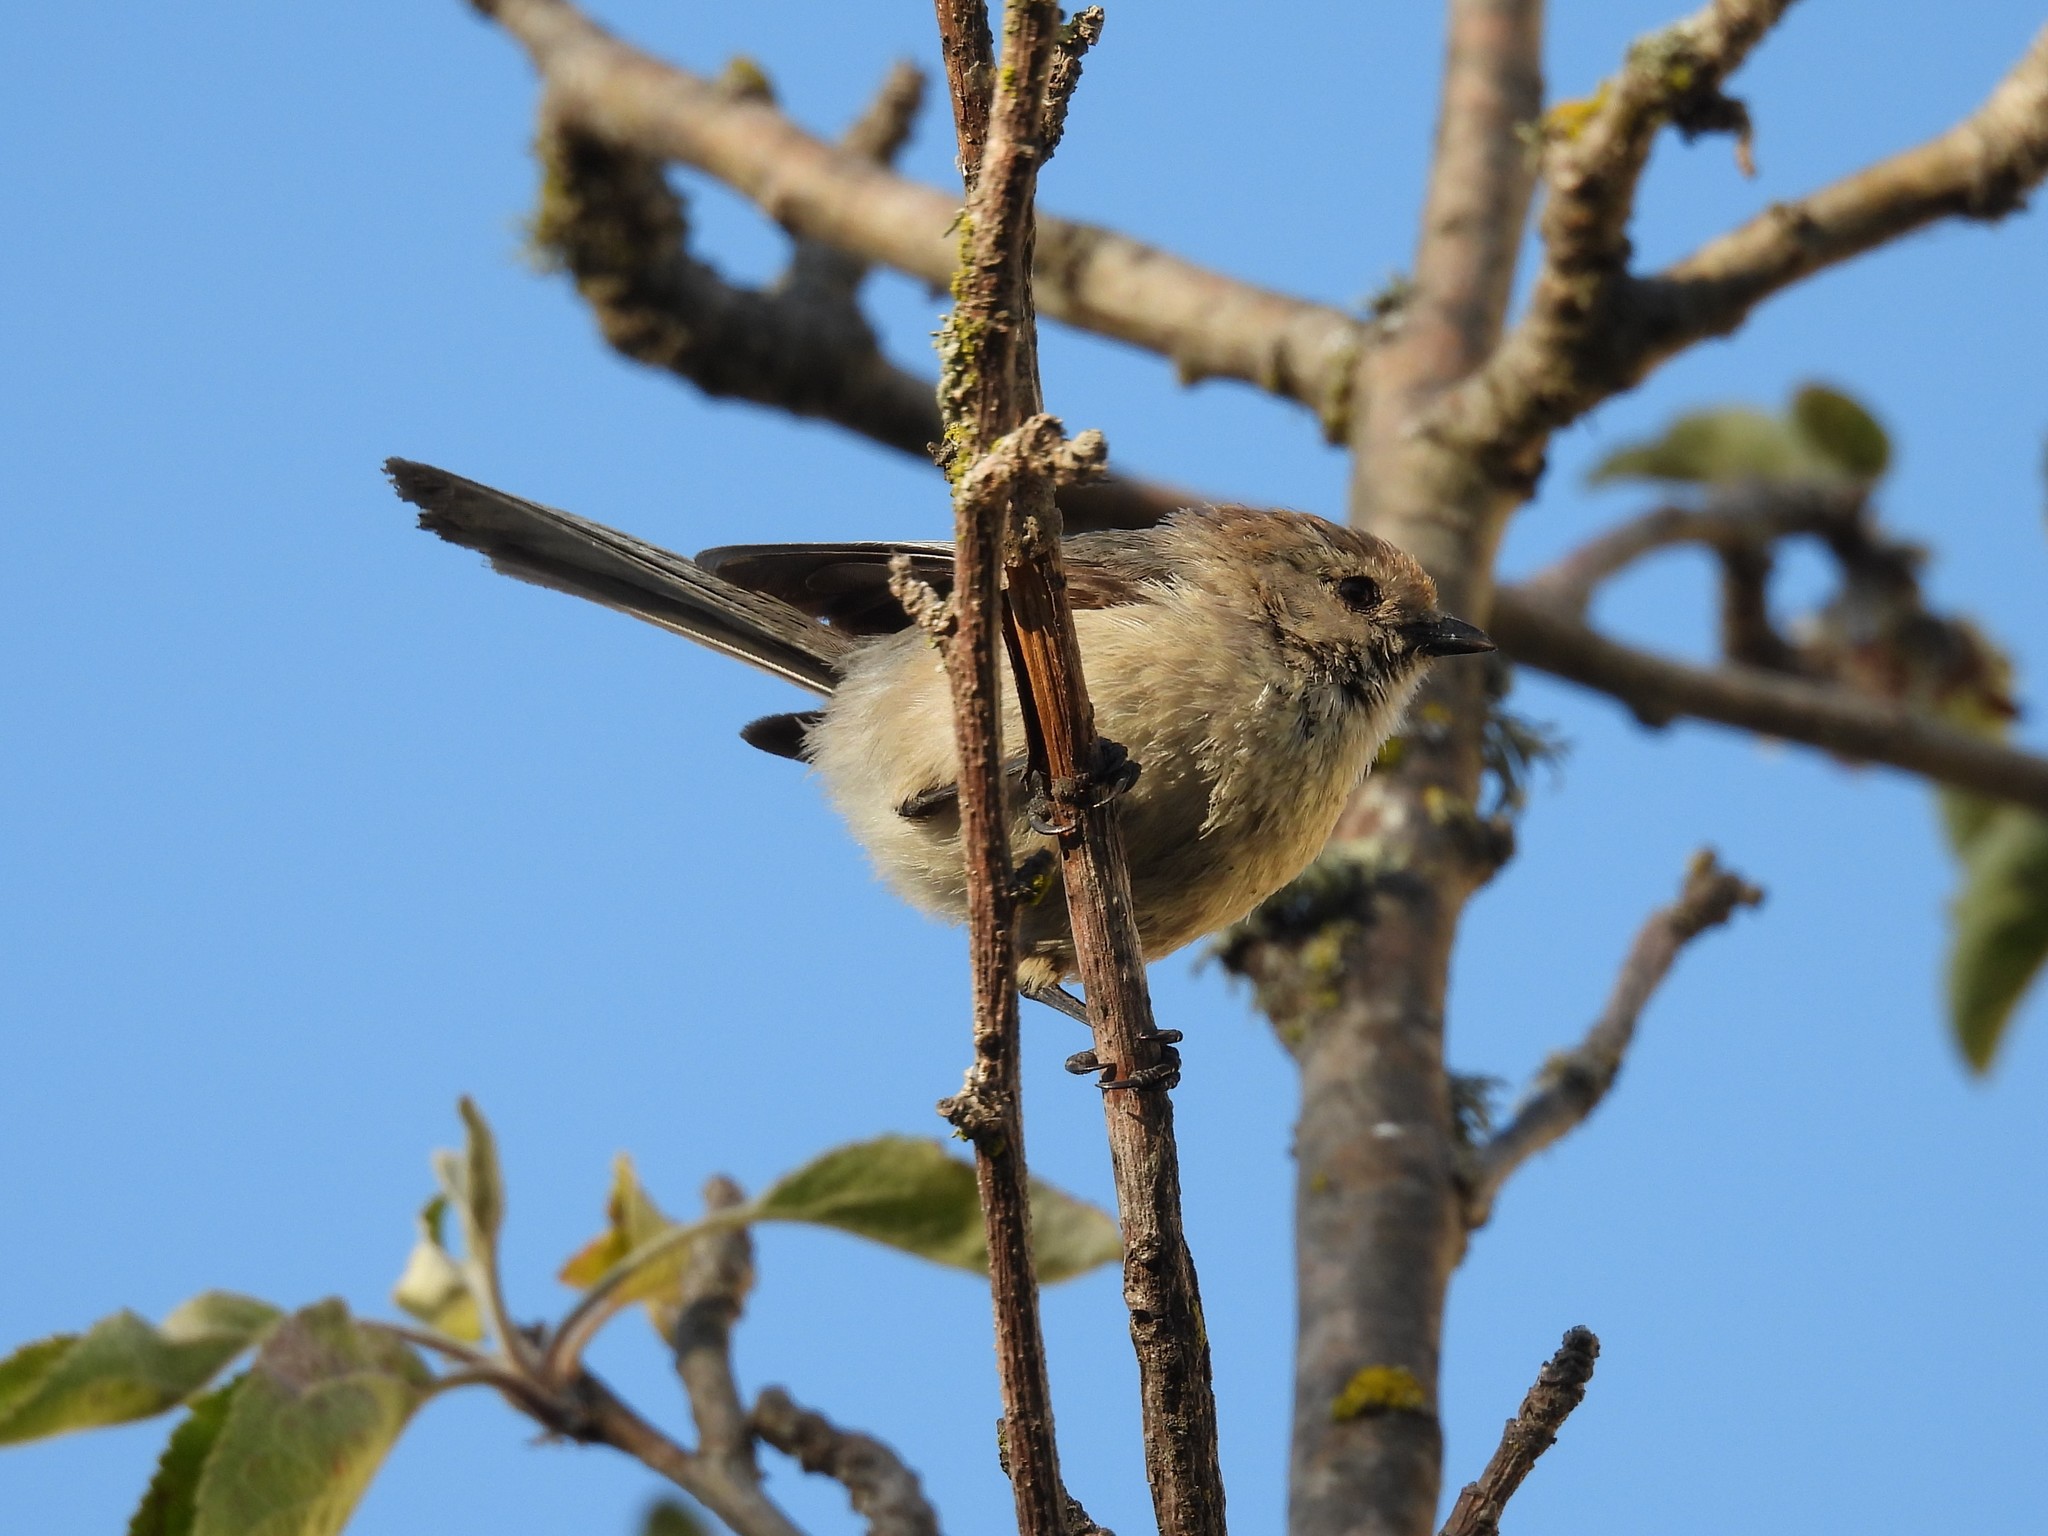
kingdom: Animalia
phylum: Chordata
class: Aves
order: Passeriformes
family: Aegithalidae
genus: Psaltriparus
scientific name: Psaltriparus minimus
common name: American bushtit
